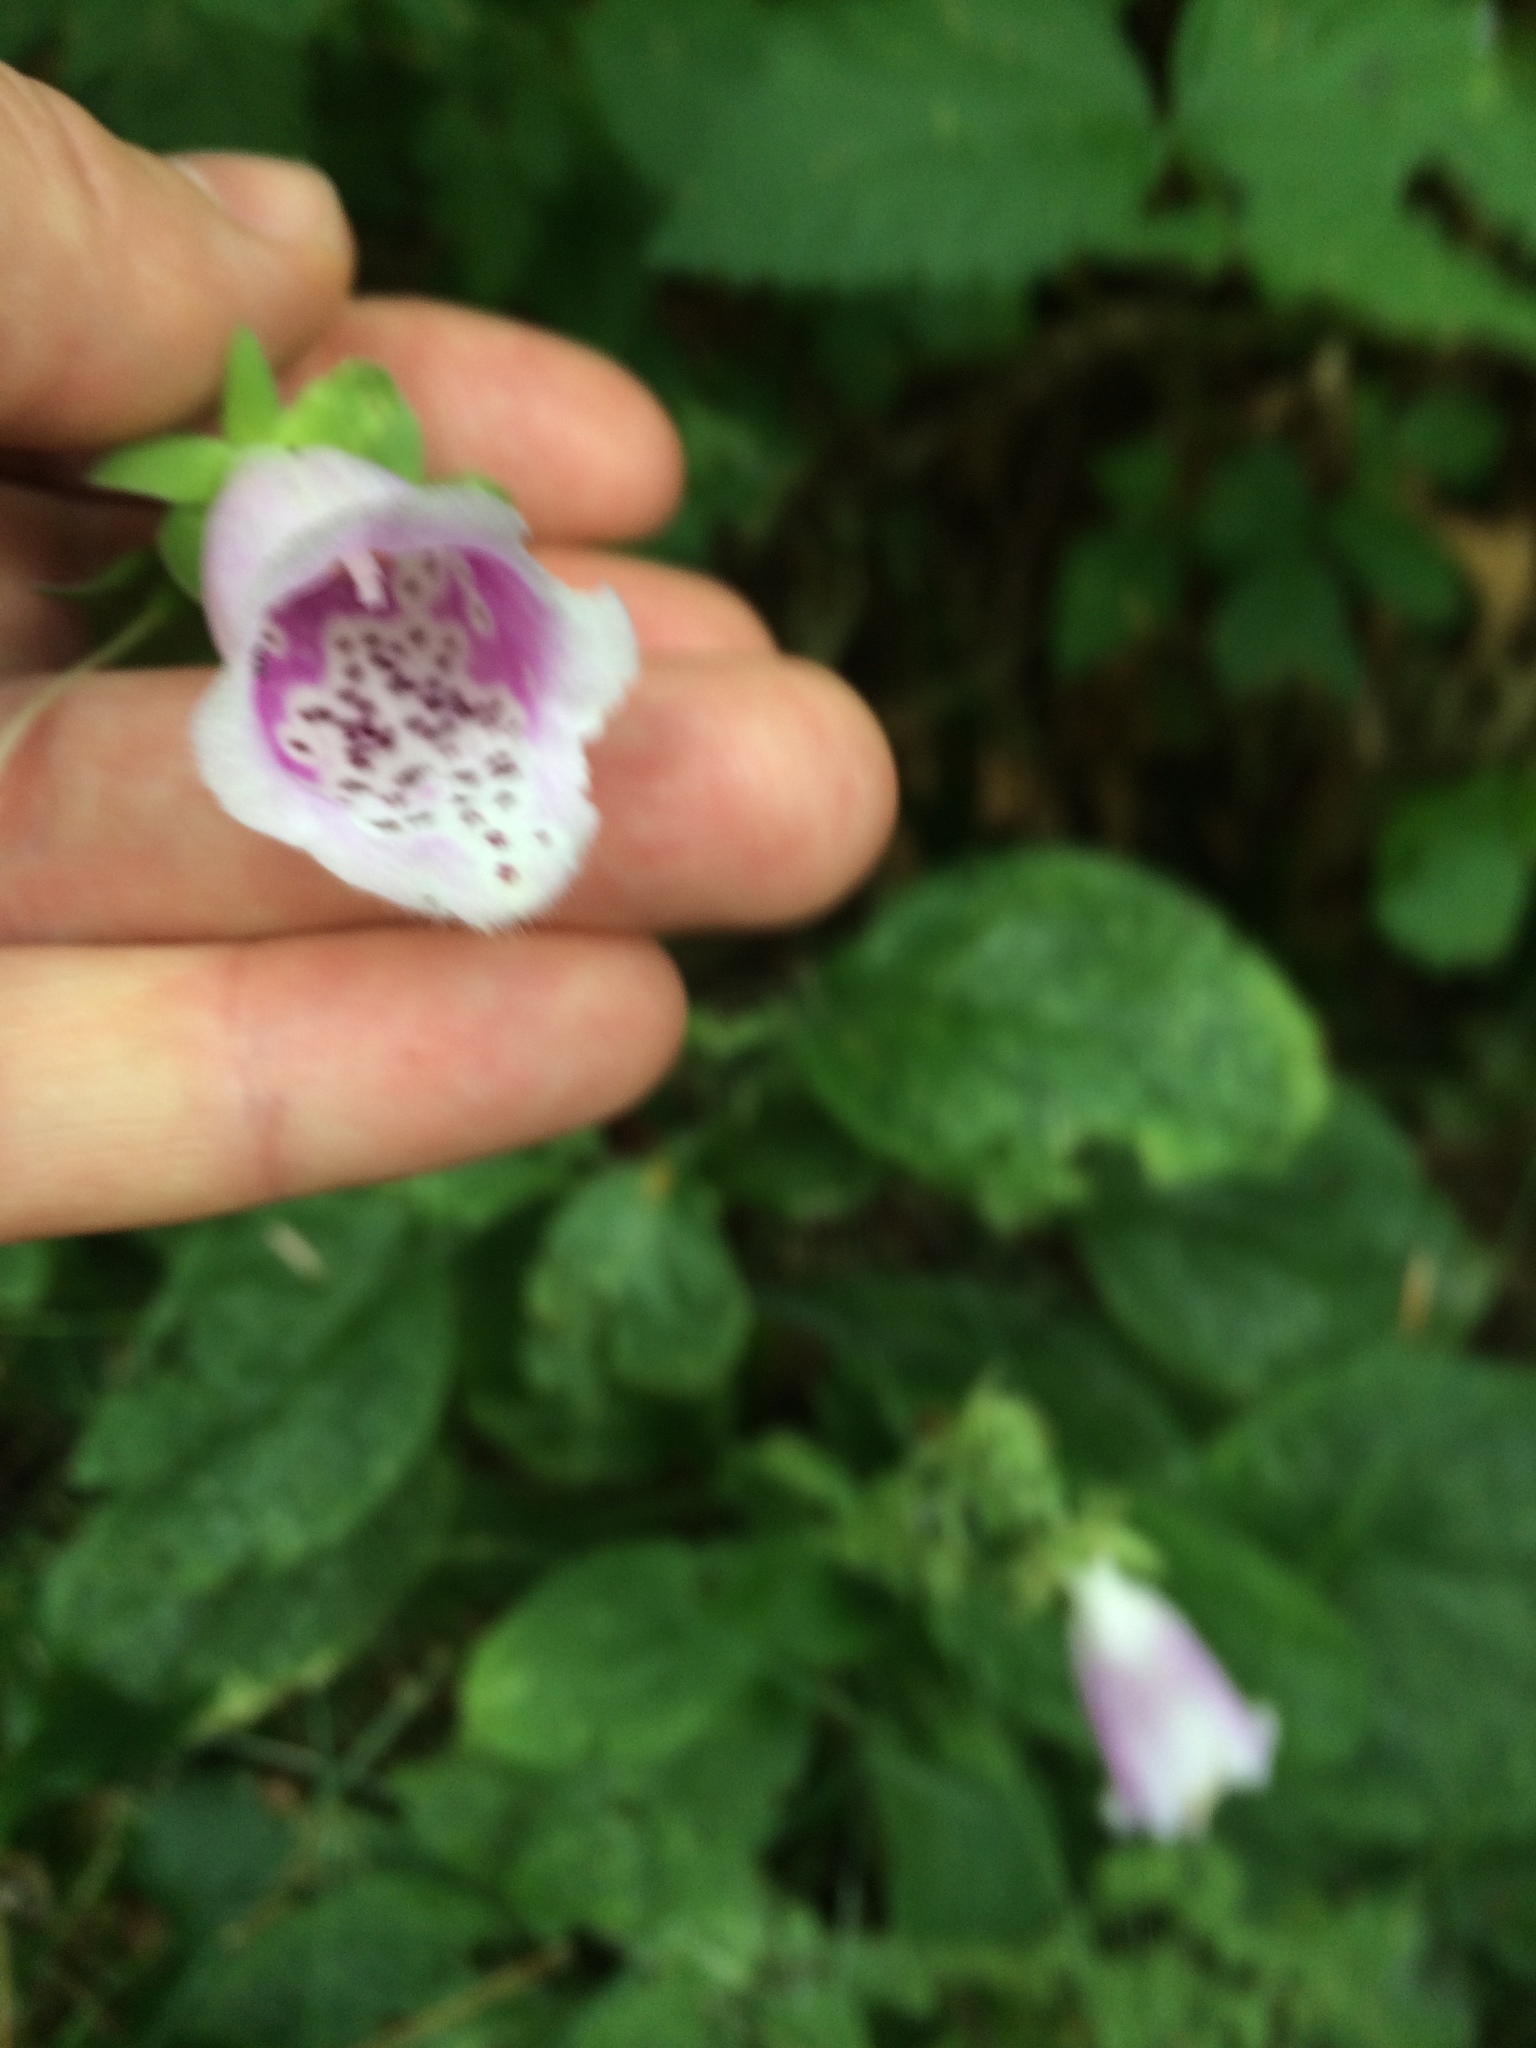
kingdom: Plantae
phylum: Tracheophyta
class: Magnoliopsida
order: Lamiales
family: Plantaginaceae
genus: Digitalis
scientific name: Digitalis purpurea
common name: Foxglove
